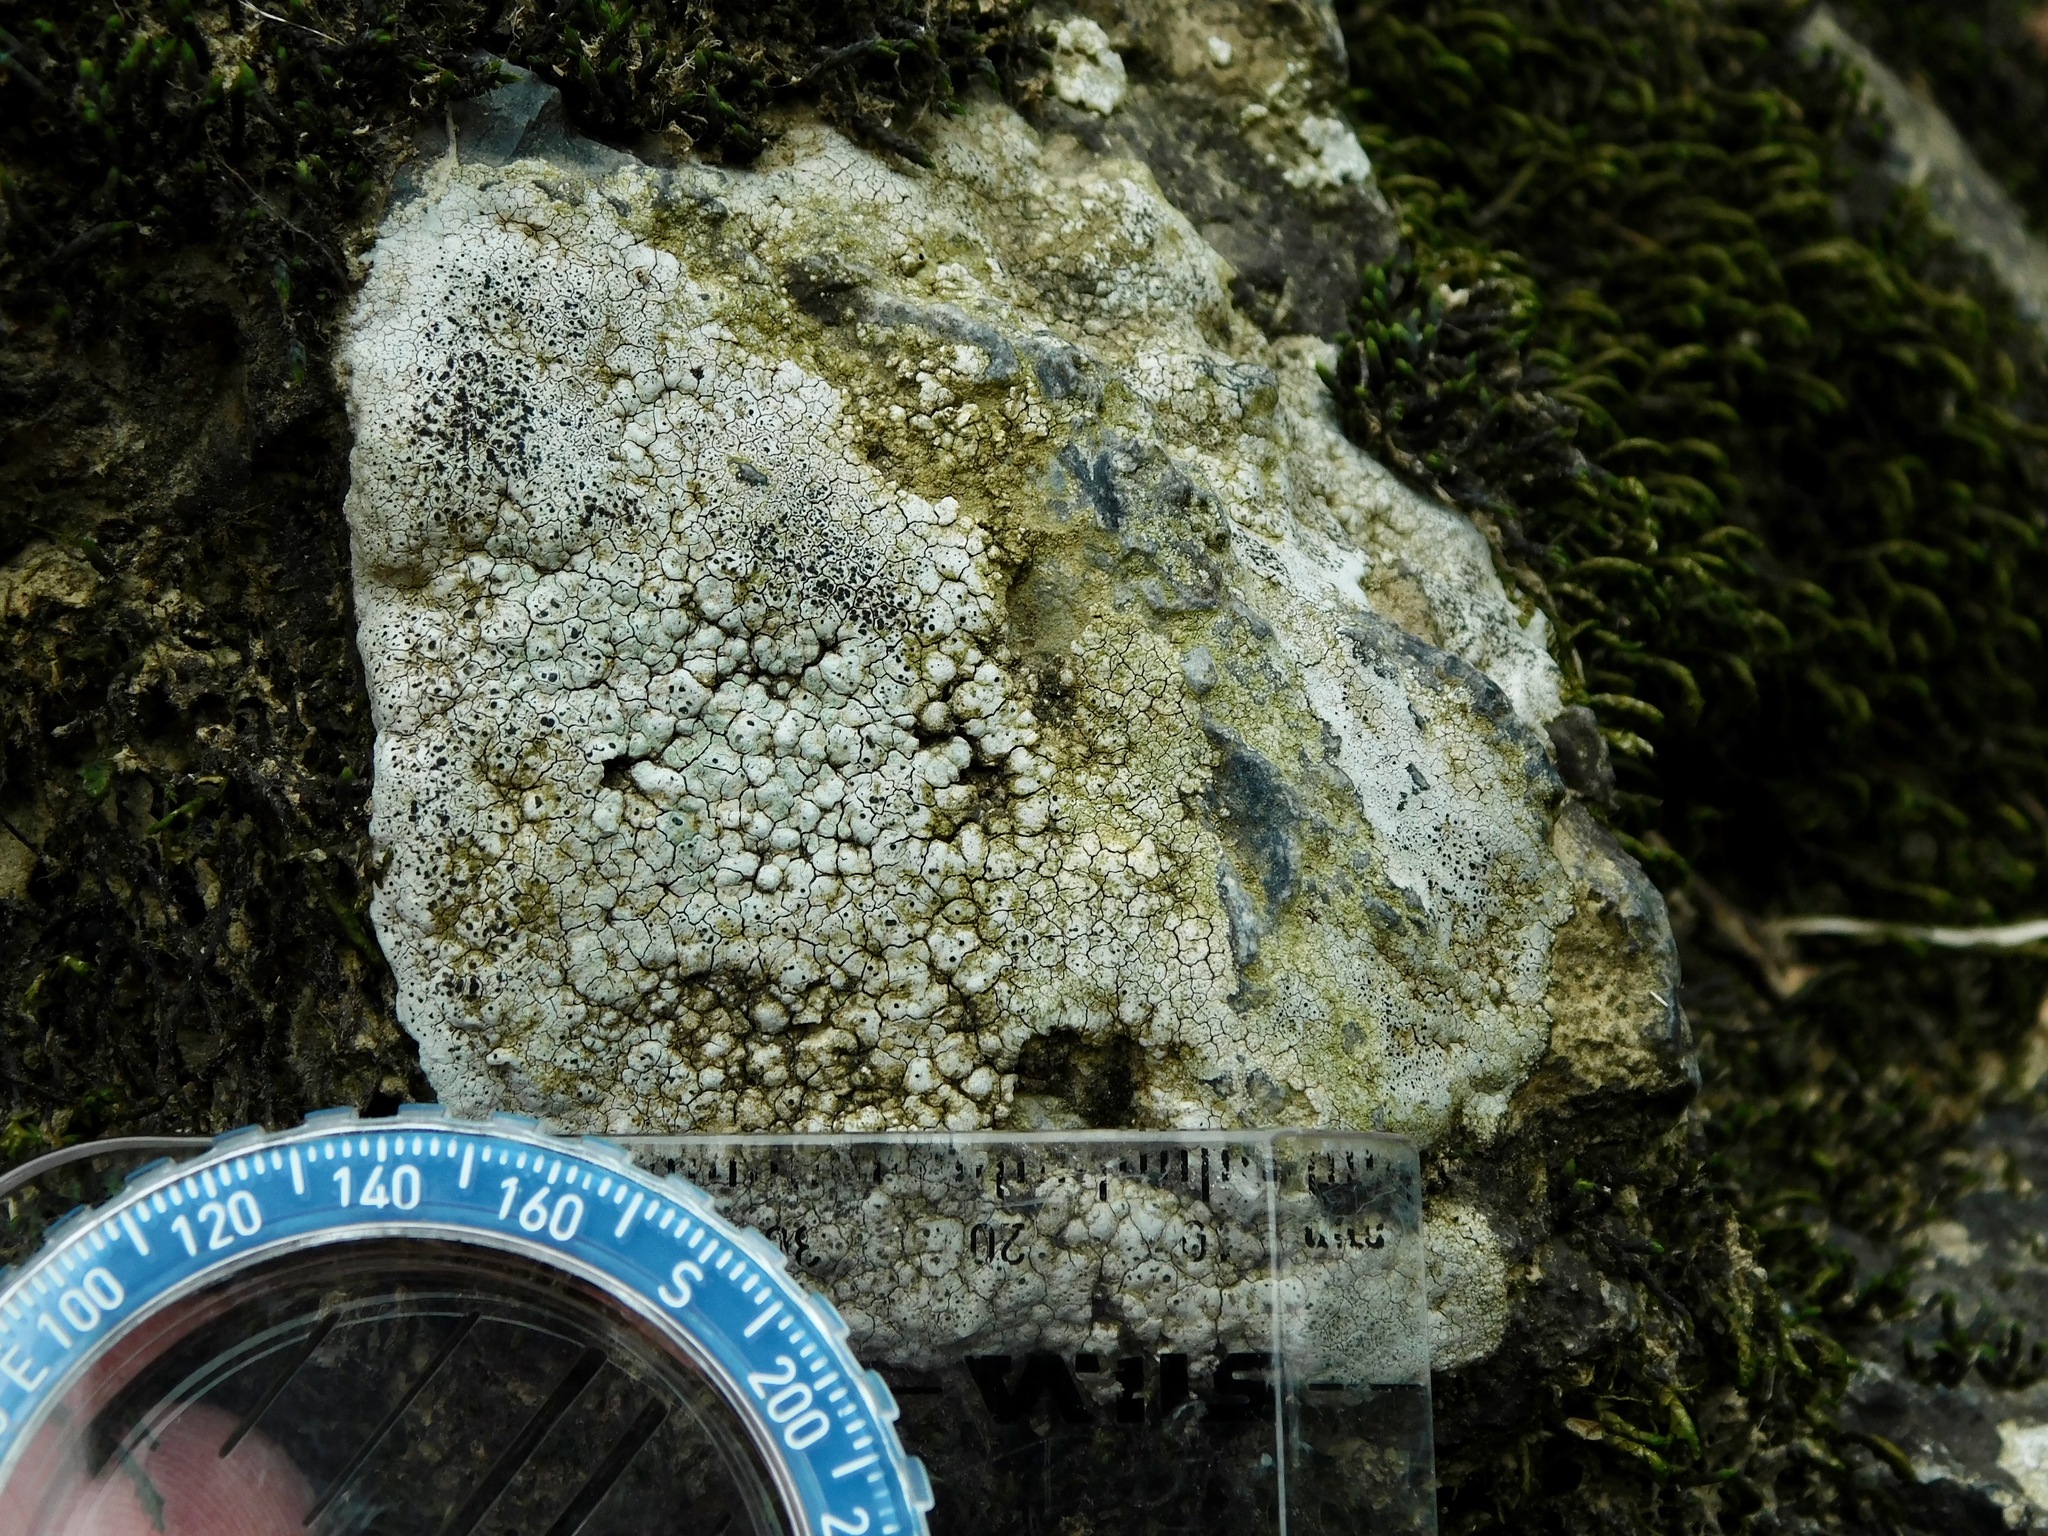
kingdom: Fungi
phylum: Ascomycota
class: Lecanoromycetes
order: Pertusariales
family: Megasporaceae
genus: Aspicilia
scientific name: Aspicilia aquatica
